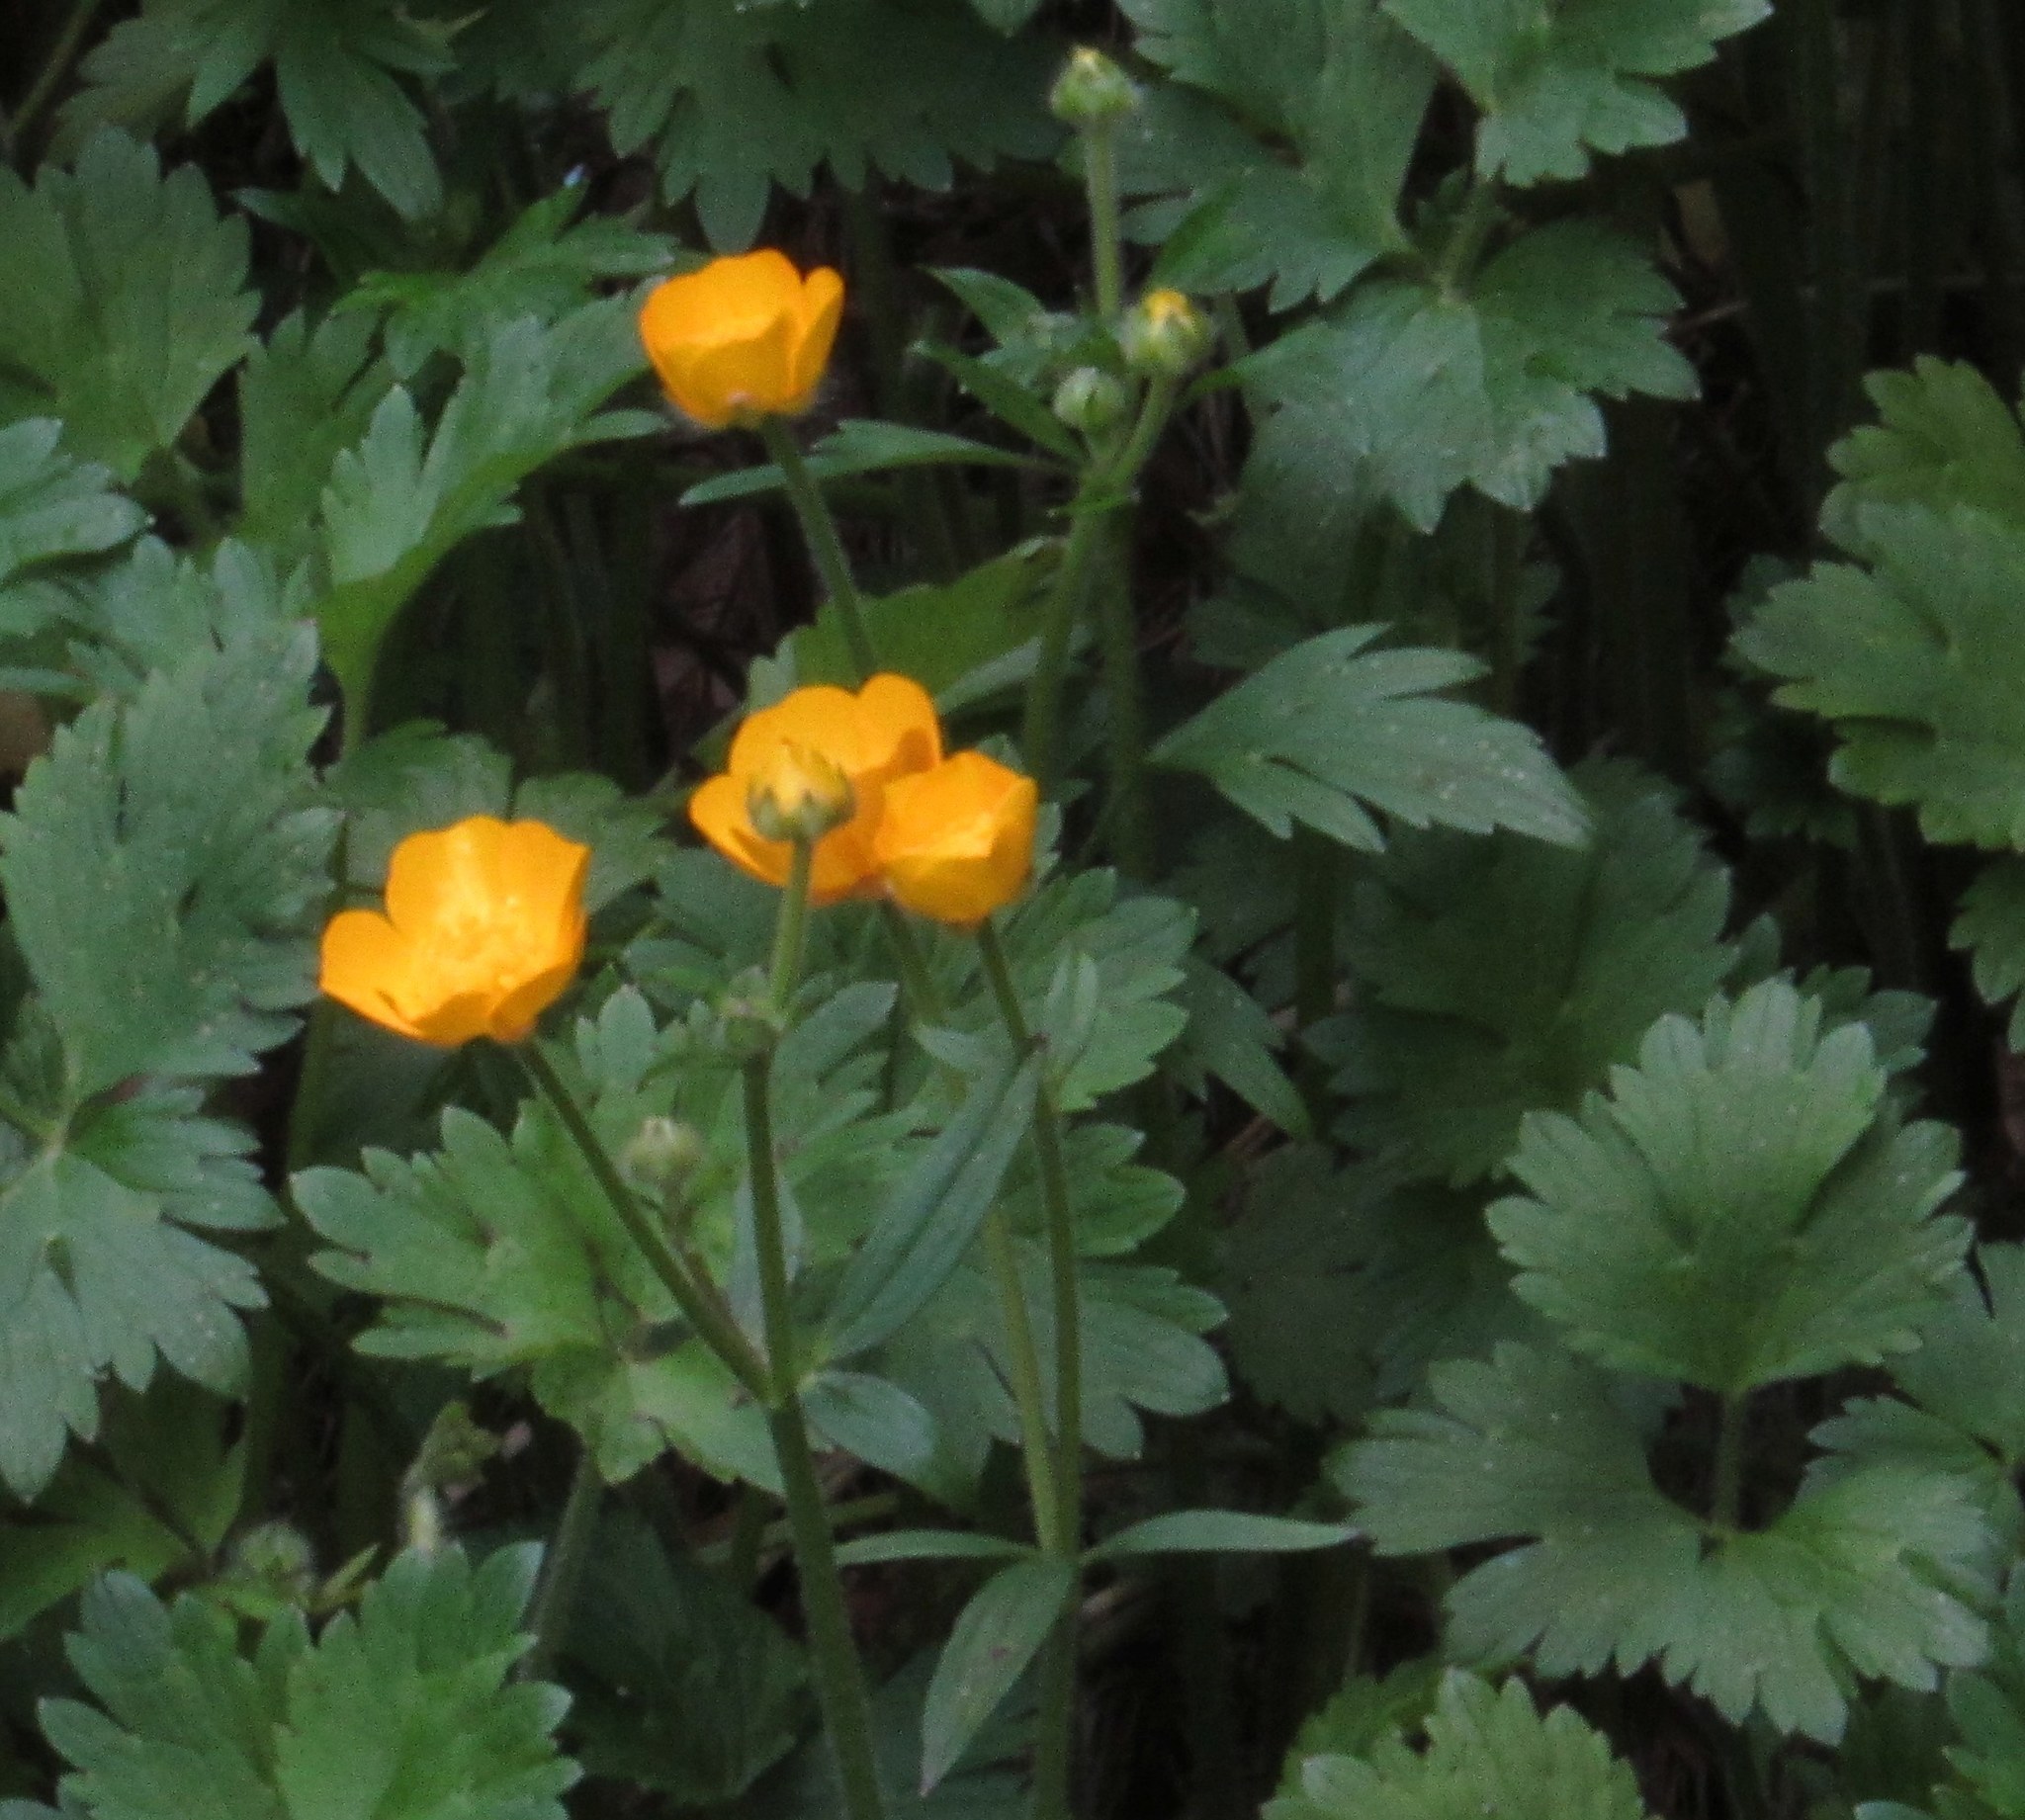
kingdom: Plantae
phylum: Tracheophyta
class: Magnoliopsida
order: Ranunculales
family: Ranunculaceae
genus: Ranunculus
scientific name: Ranunculus repens
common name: Creeping buttercup
